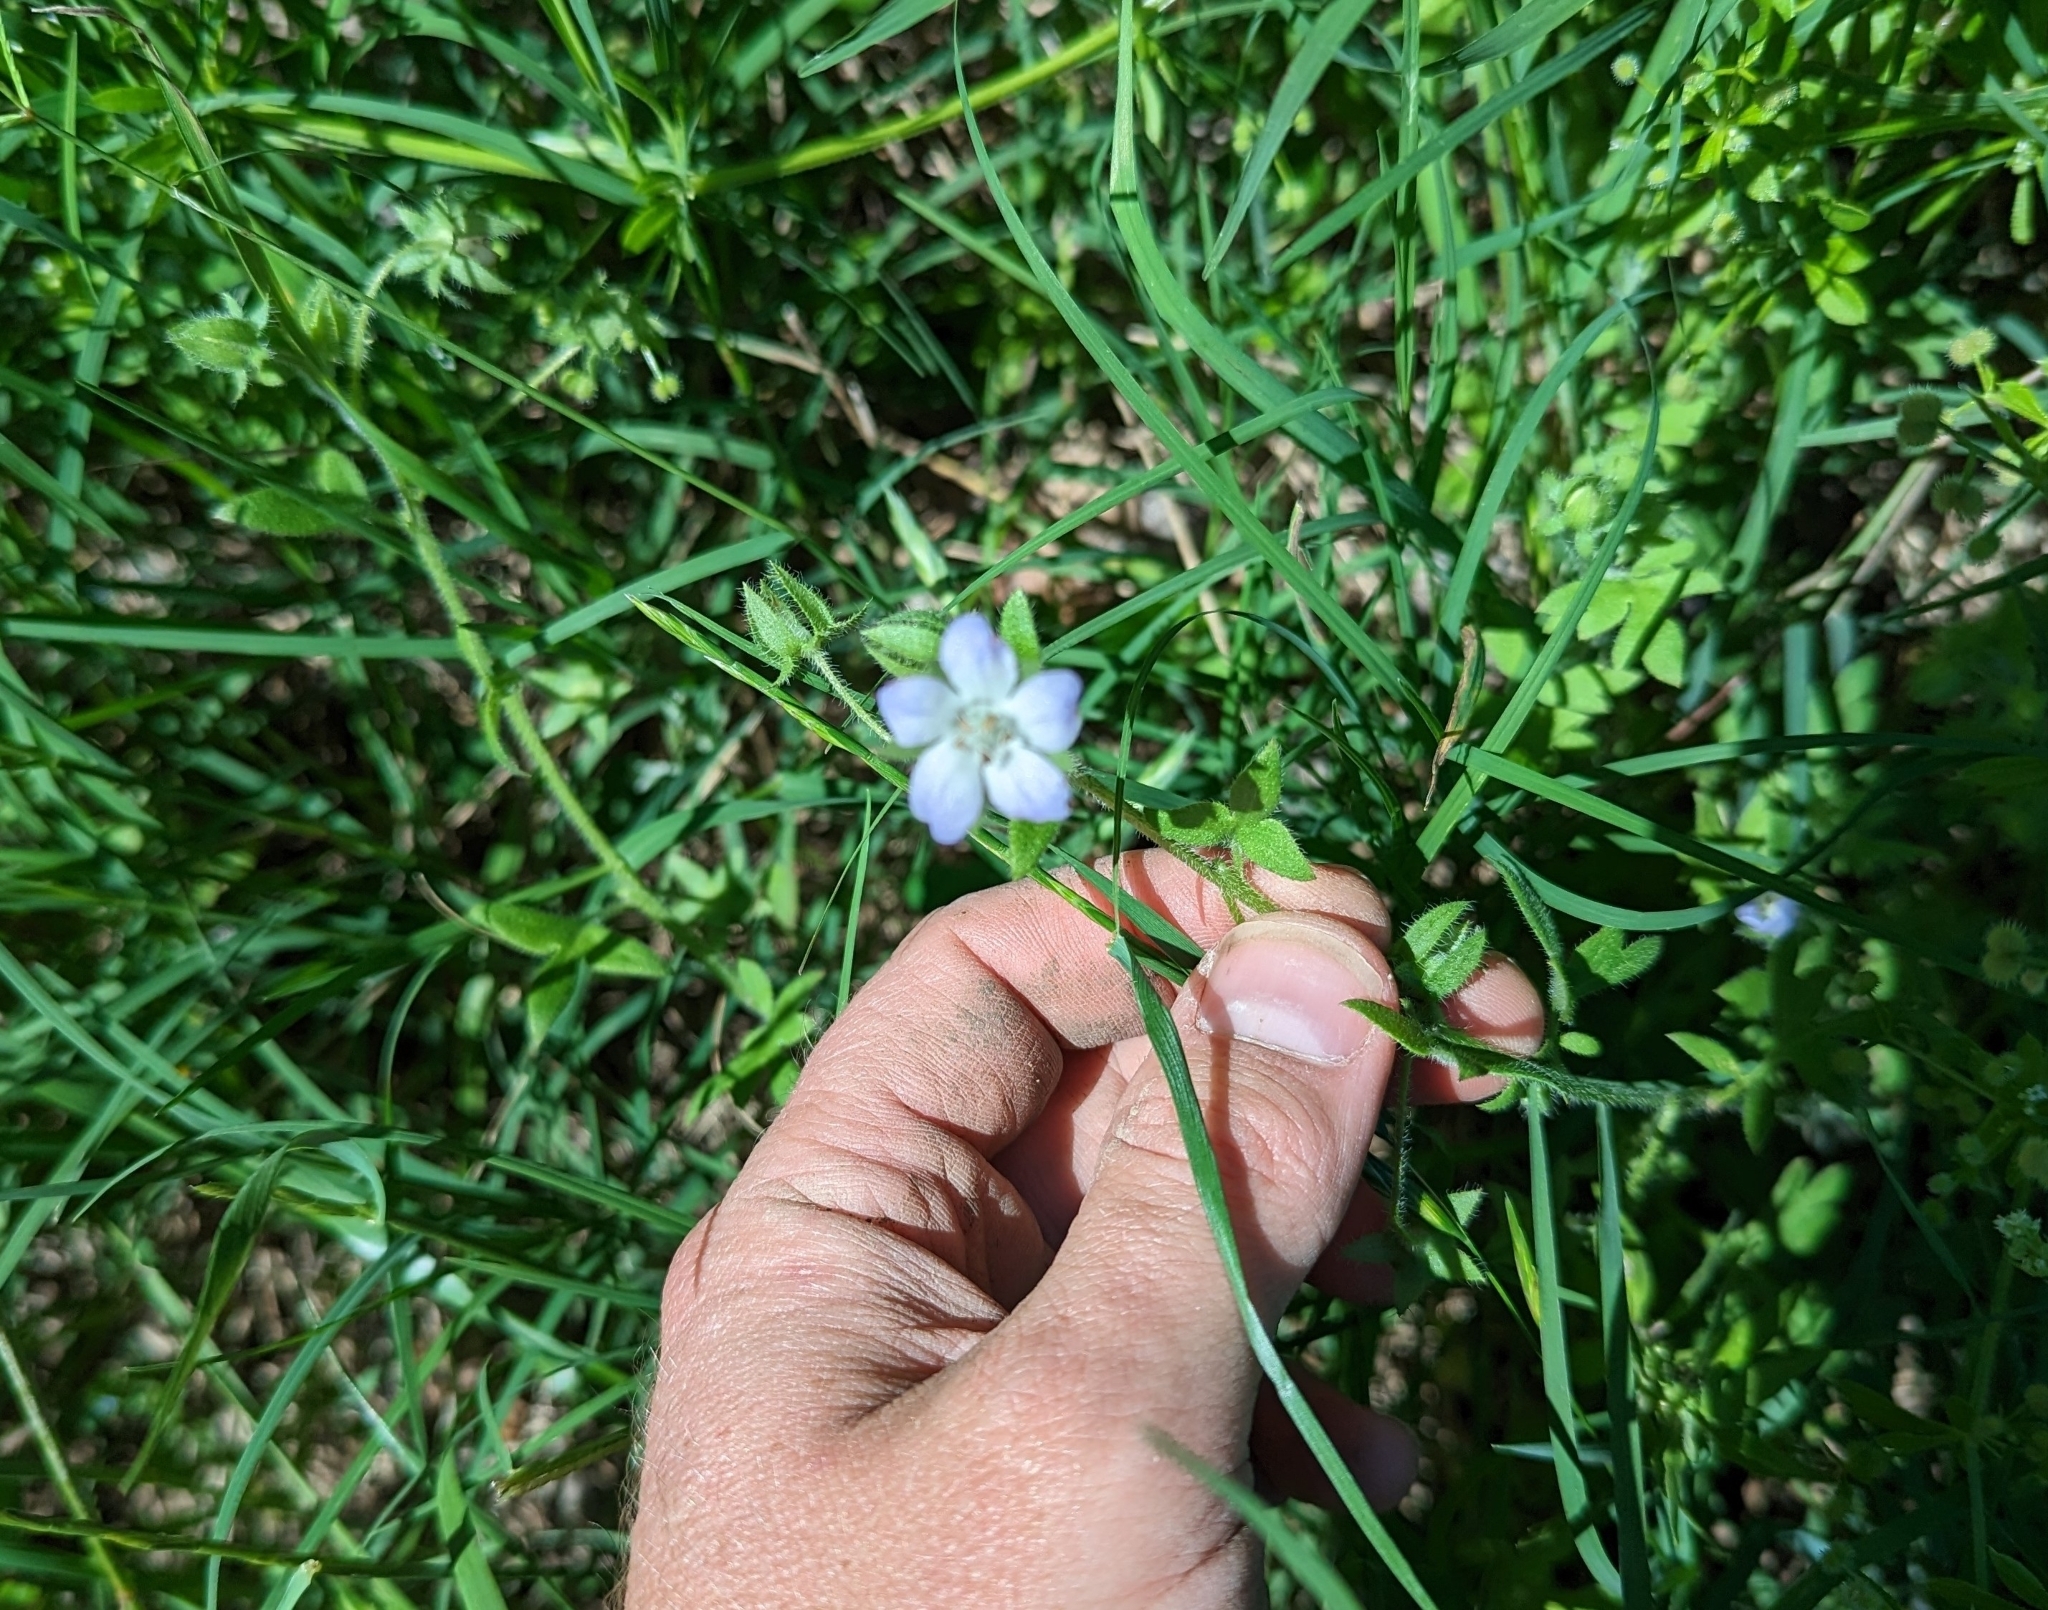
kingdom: Plantae
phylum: Tracheophyta
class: Magnoliopsida
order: Boraginales
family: Hydrophyllaceae
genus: Nemophila
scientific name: Nemophila phacelioides
